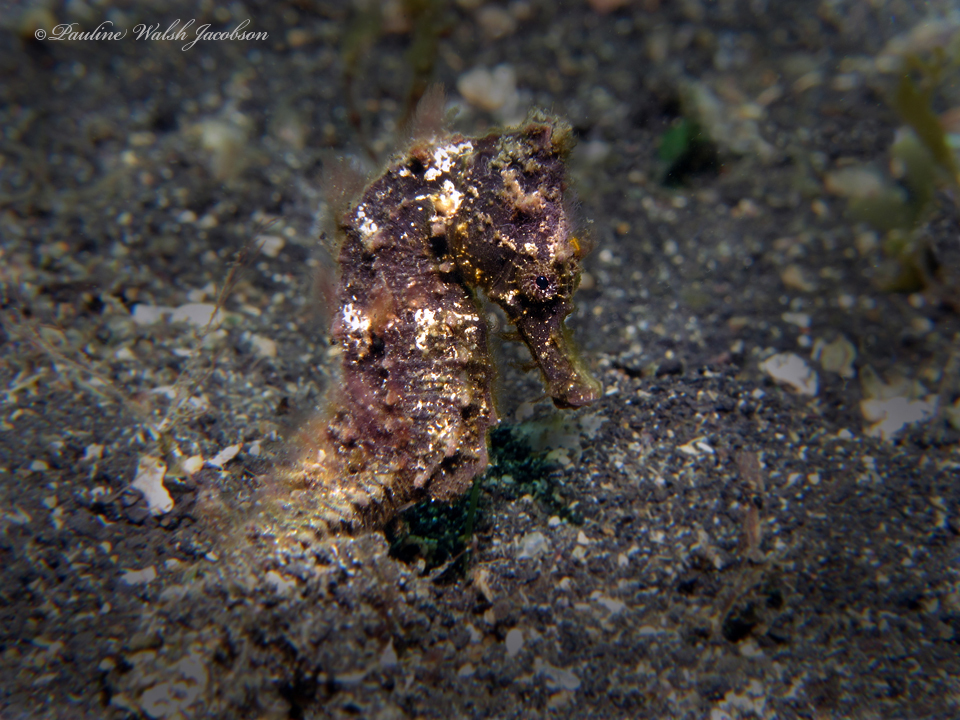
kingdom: Animalia
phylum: Chordata
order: Syngnathiformes
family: Syngnathidae
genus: Hippocampus
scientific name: Hippocampus kuda
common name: Spotted seahorse
